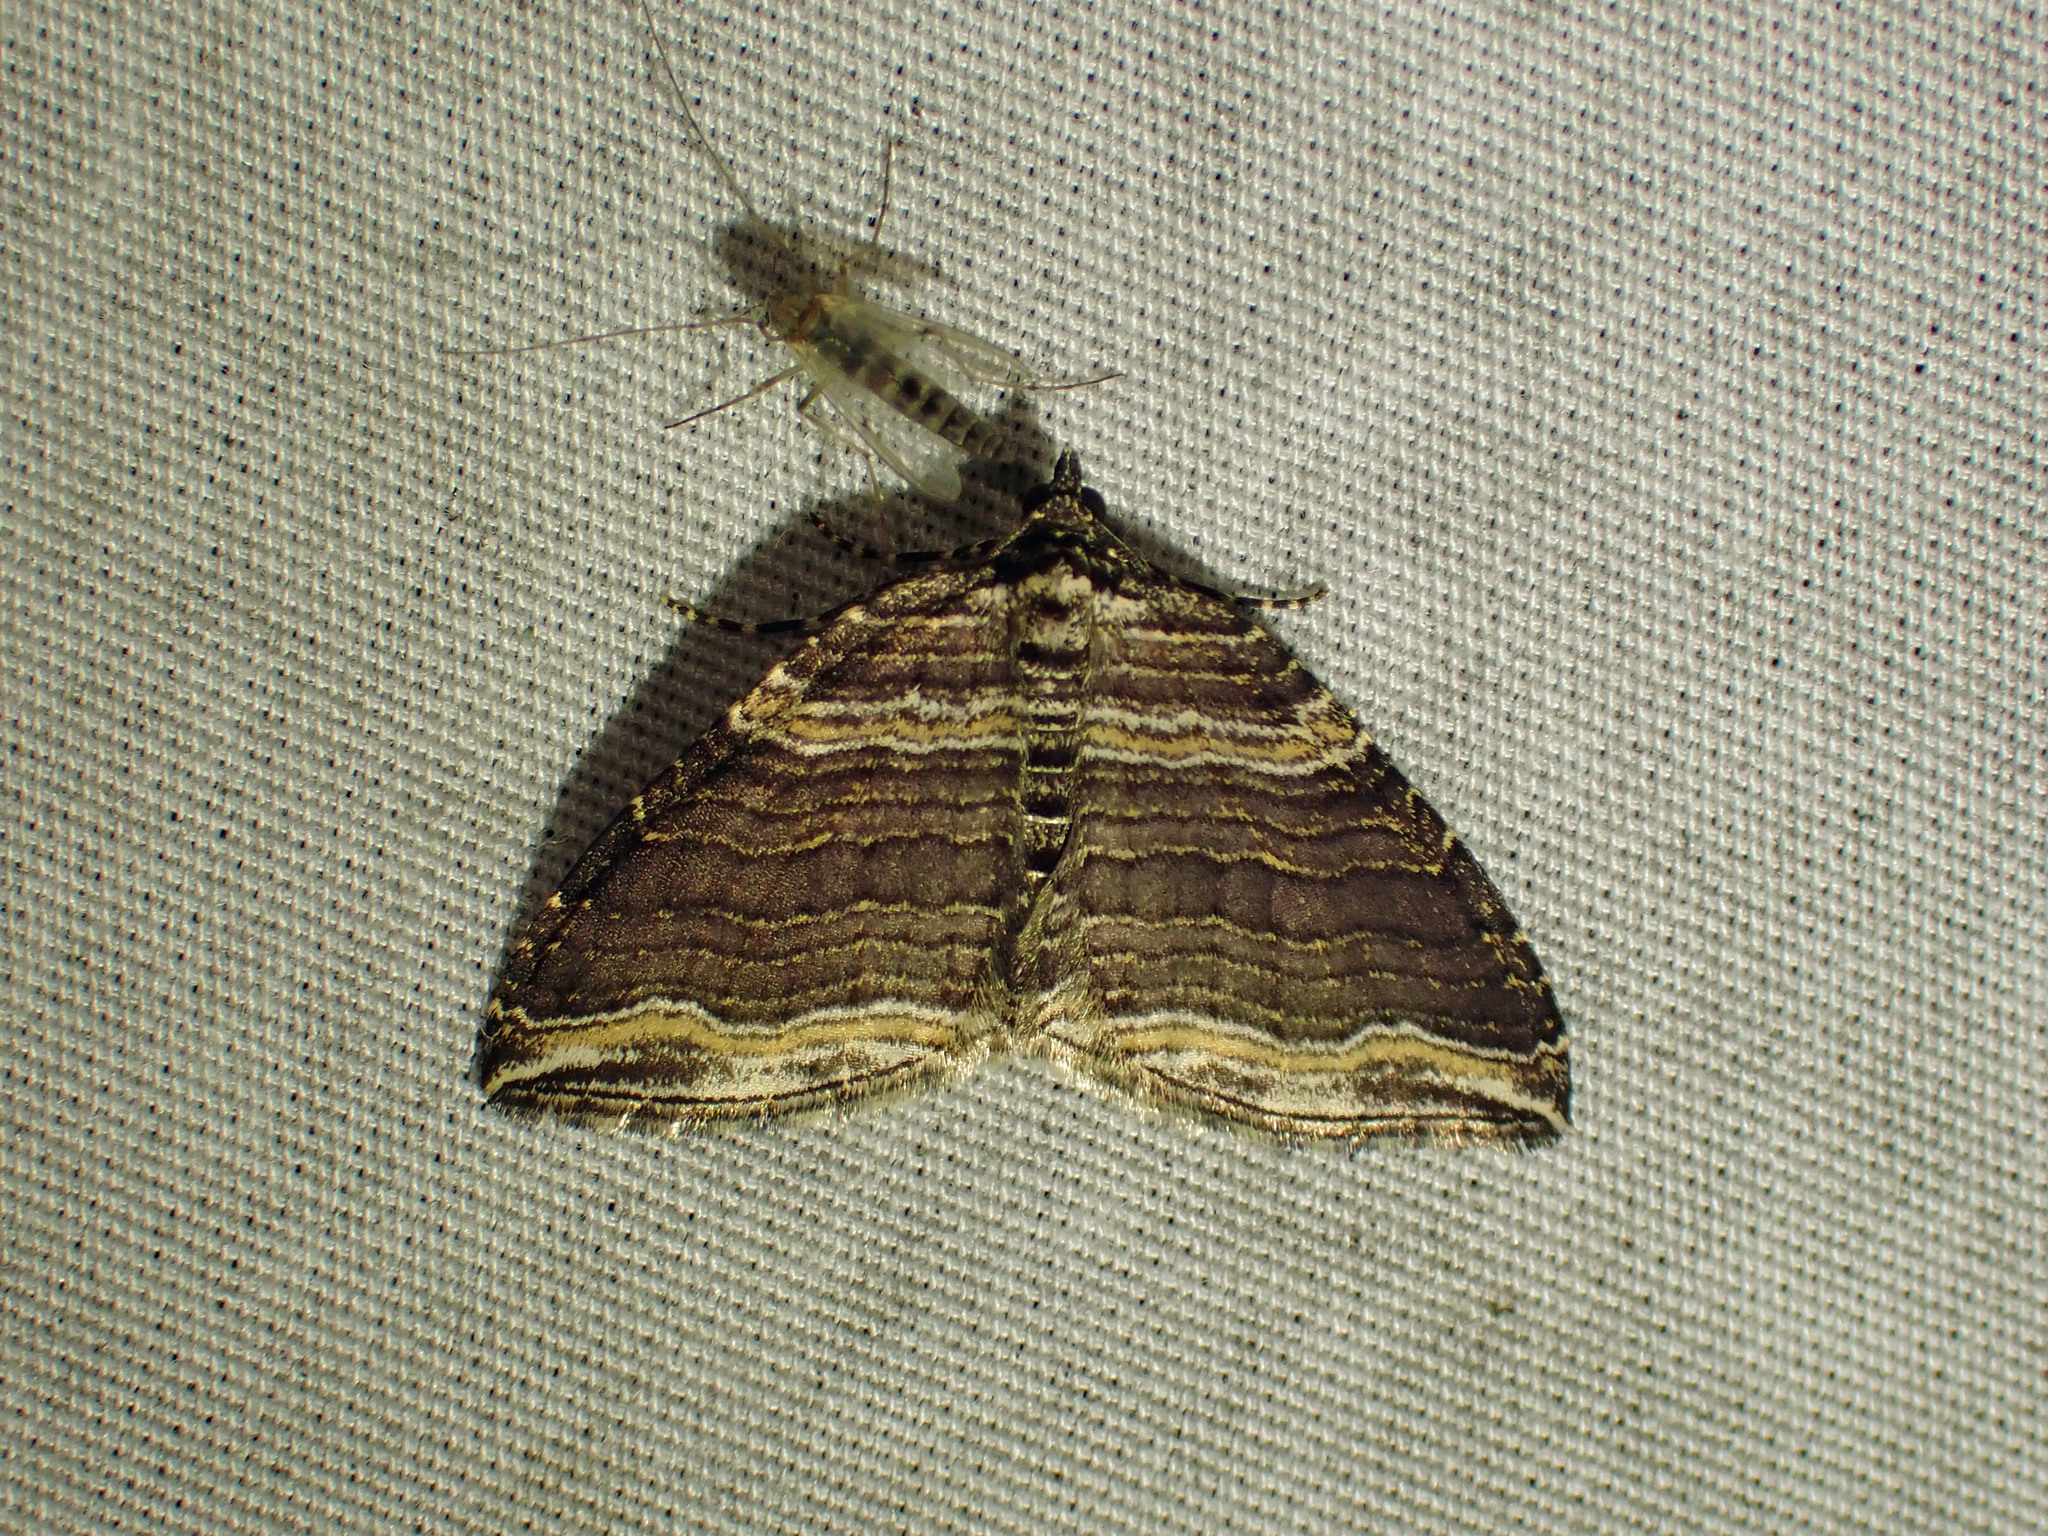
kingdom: Animalia
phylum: Arthropoda
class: Insecta
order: Lepidoptera
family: Geometridae
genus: Anticlea
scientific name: Anticlea multiferata
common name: Many-lined carpet
